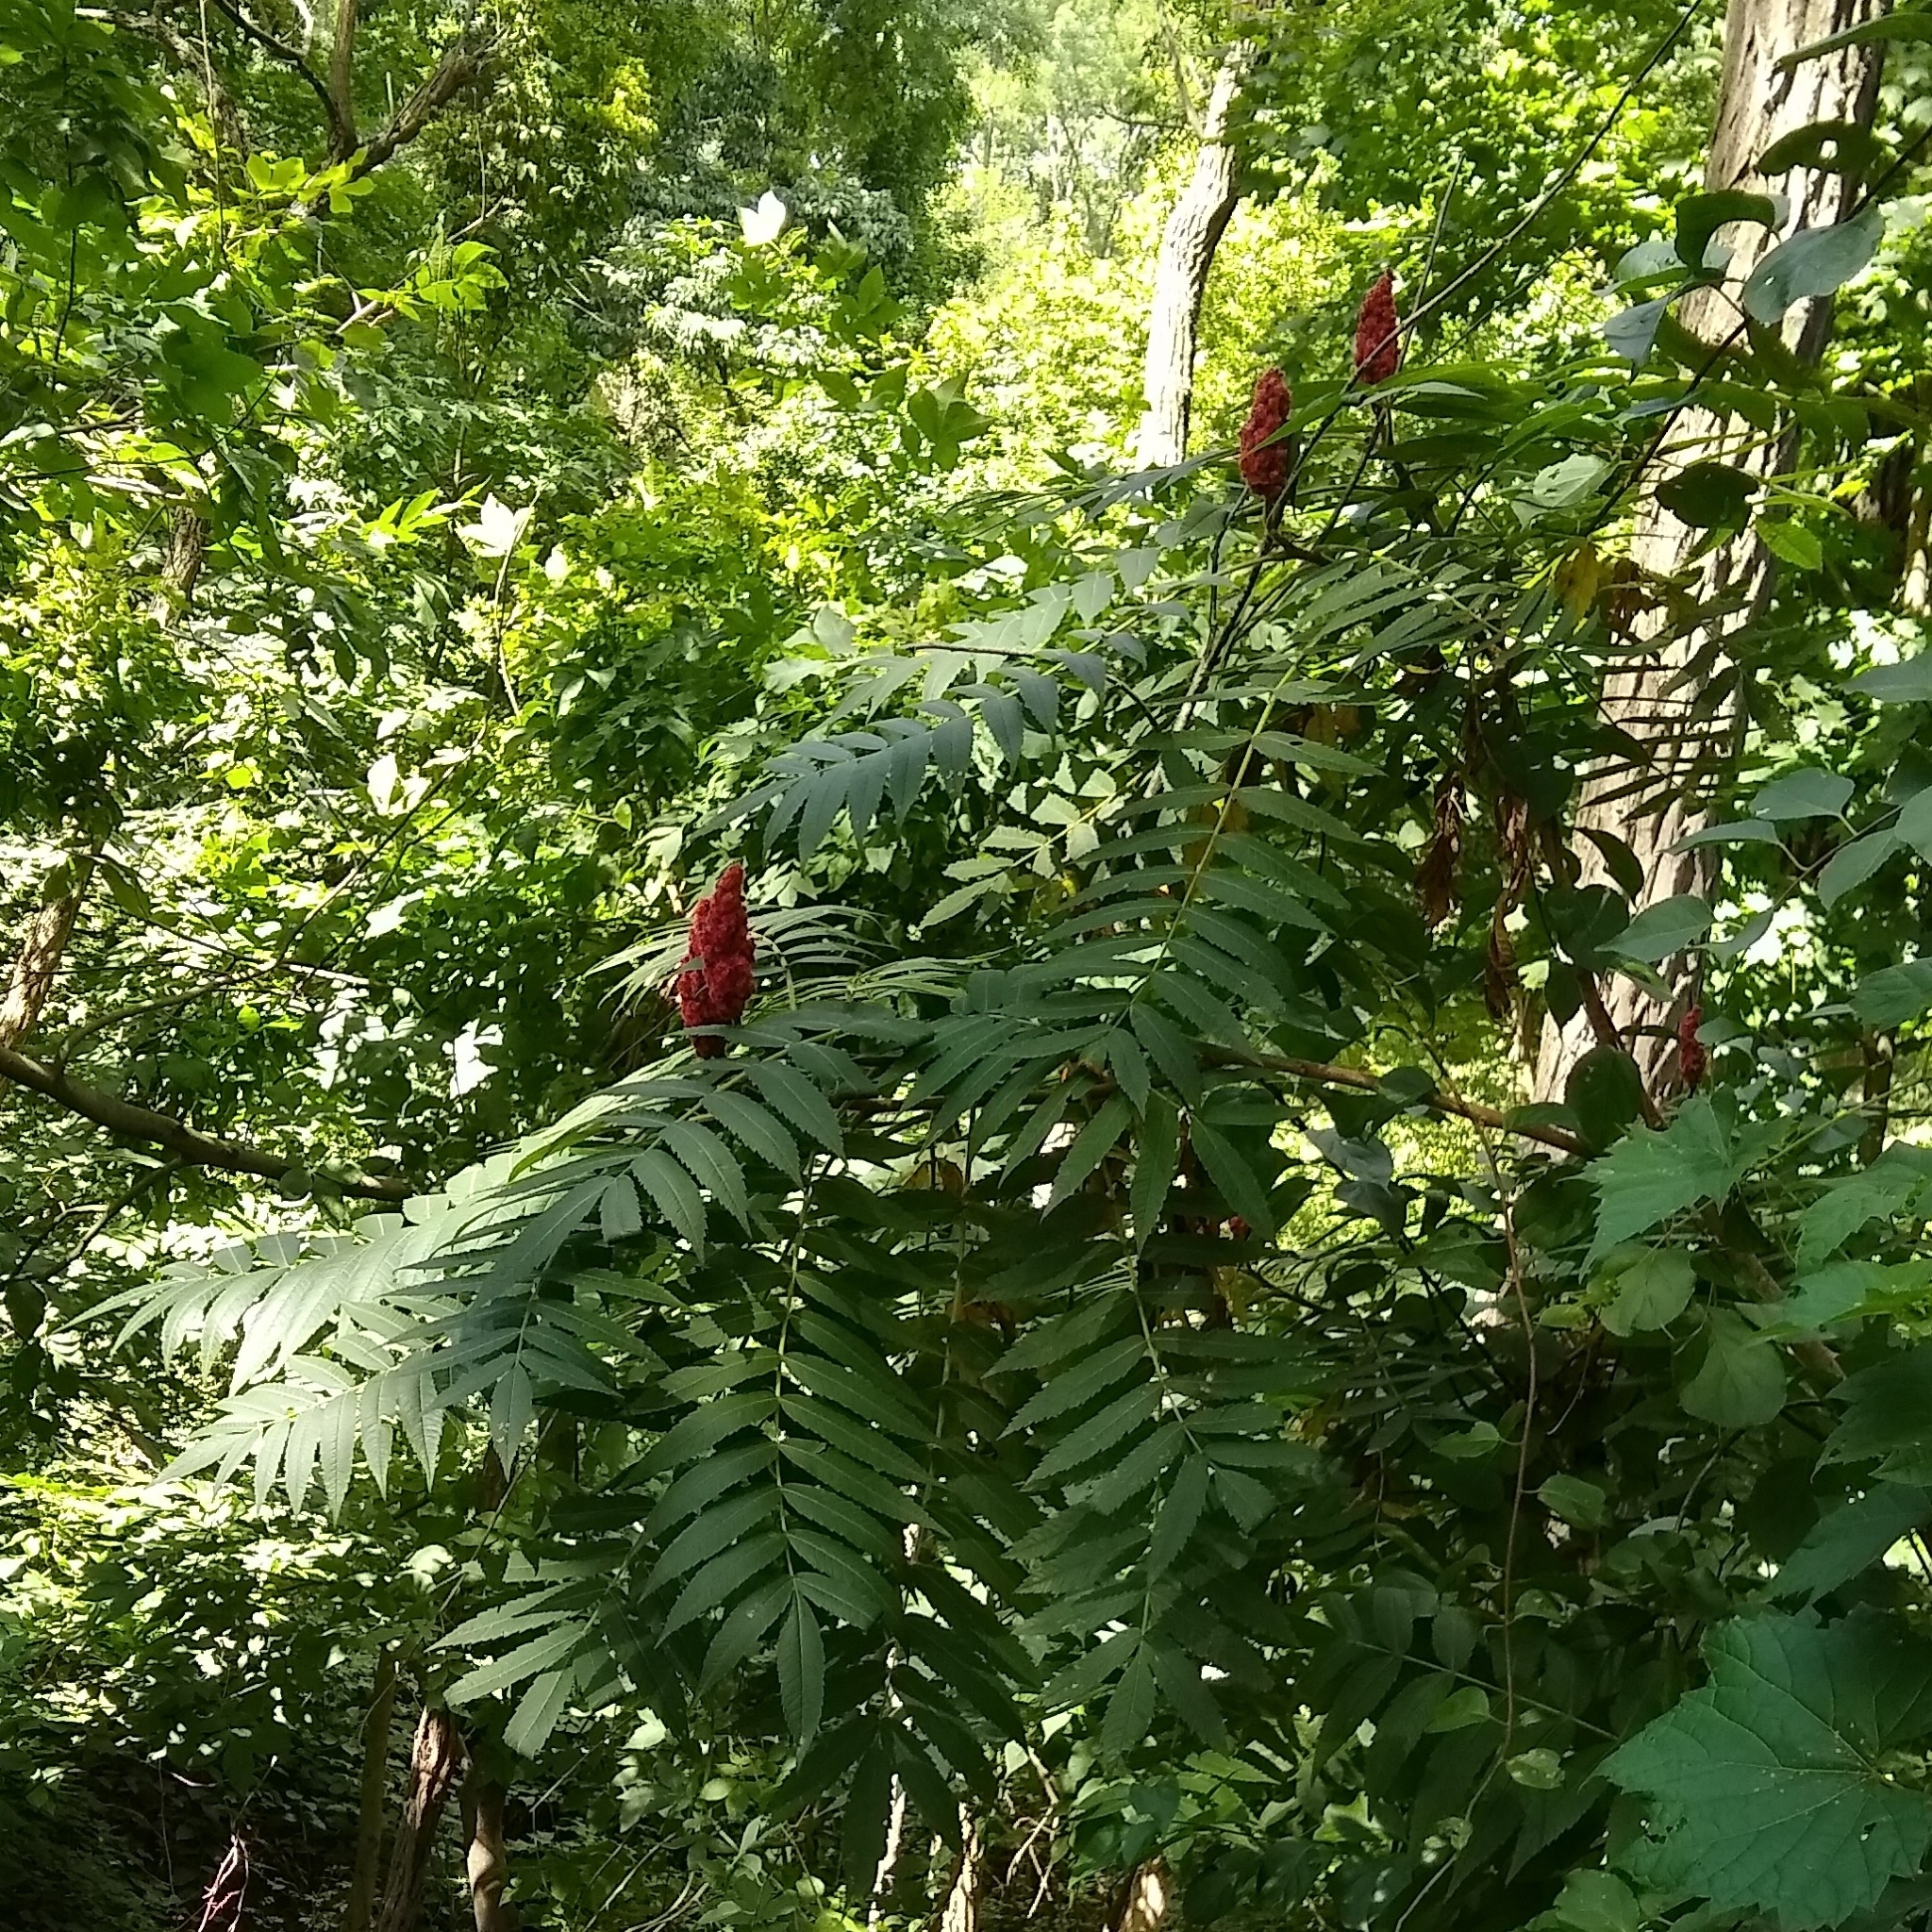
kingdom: Plantae
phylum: Tracheophyta
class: Magnoliopsida
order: Sapindales
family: Anacardiaceae
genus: Rhus
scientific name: Rhus typhina
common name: Staghorn sumac
